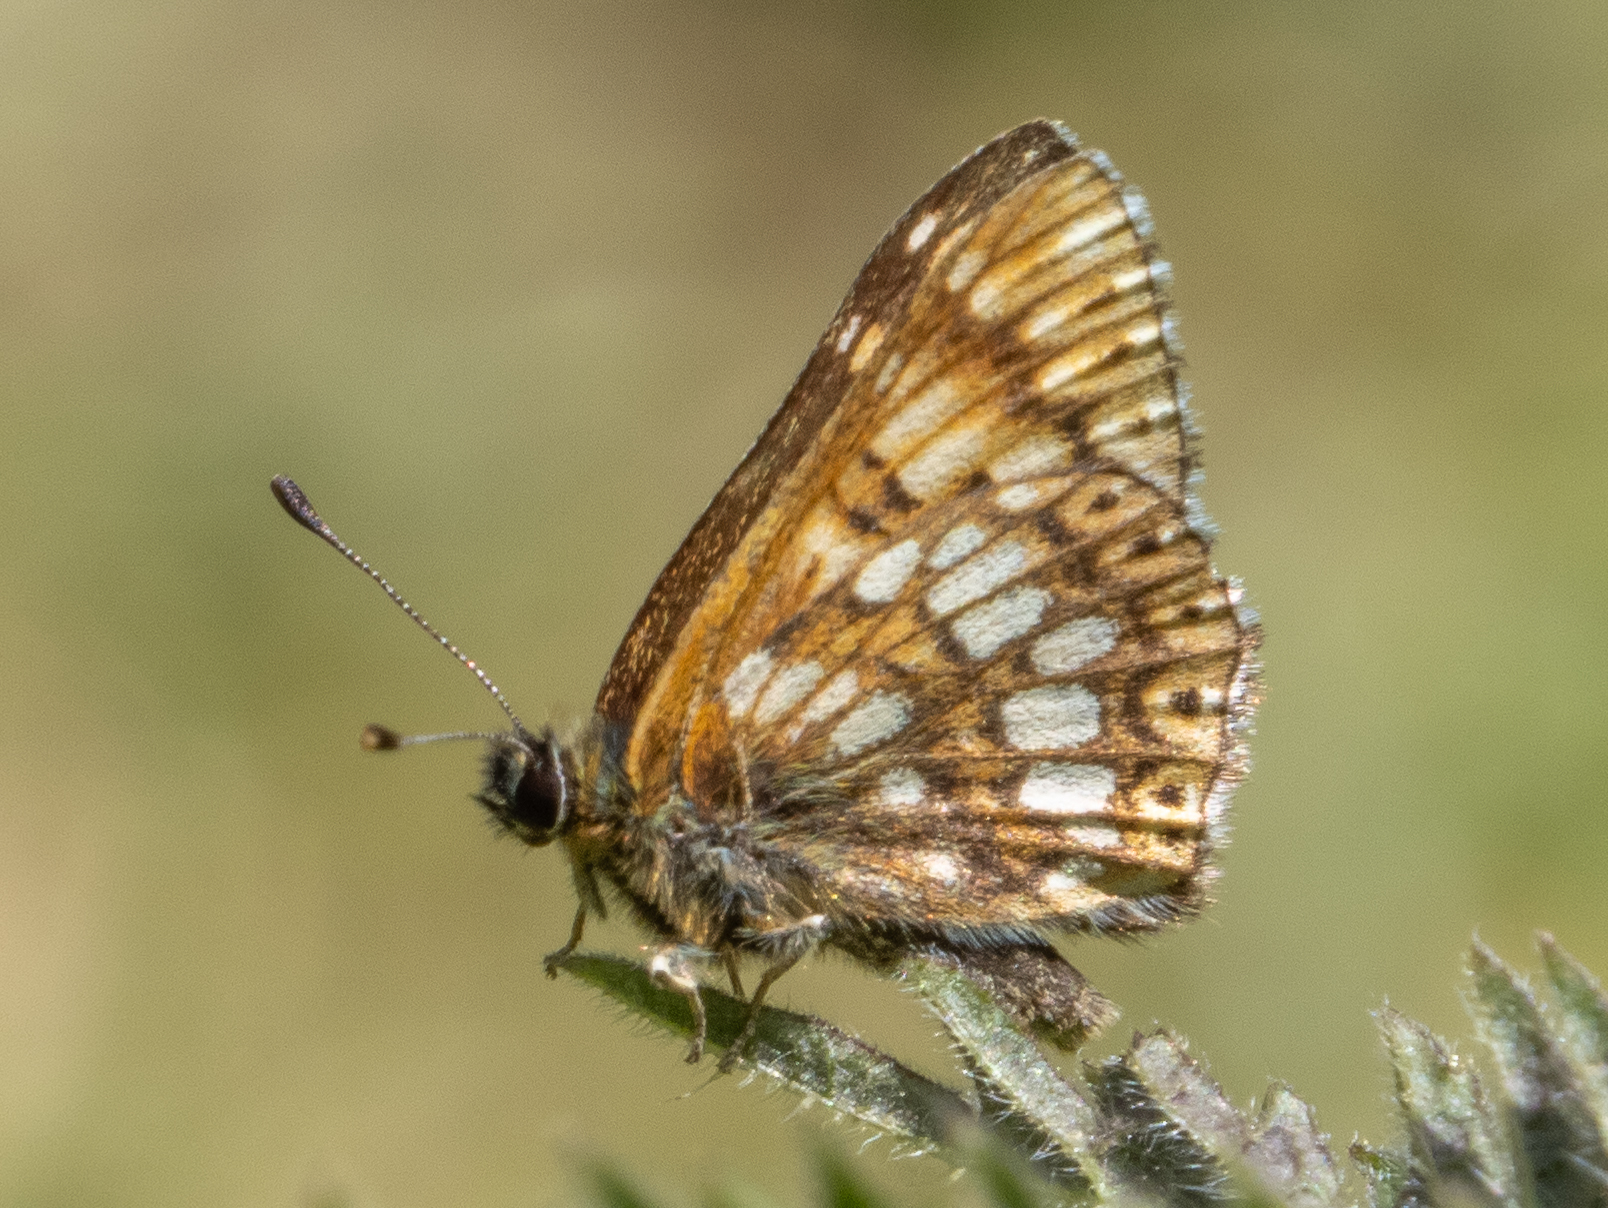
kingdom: Animalia
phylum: Arthropoda
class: Insecta
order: Lepidoptera
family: Riodinidae
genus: Hamearis
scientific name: Hamearis lucina
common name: Duke of burgundy fritillary
